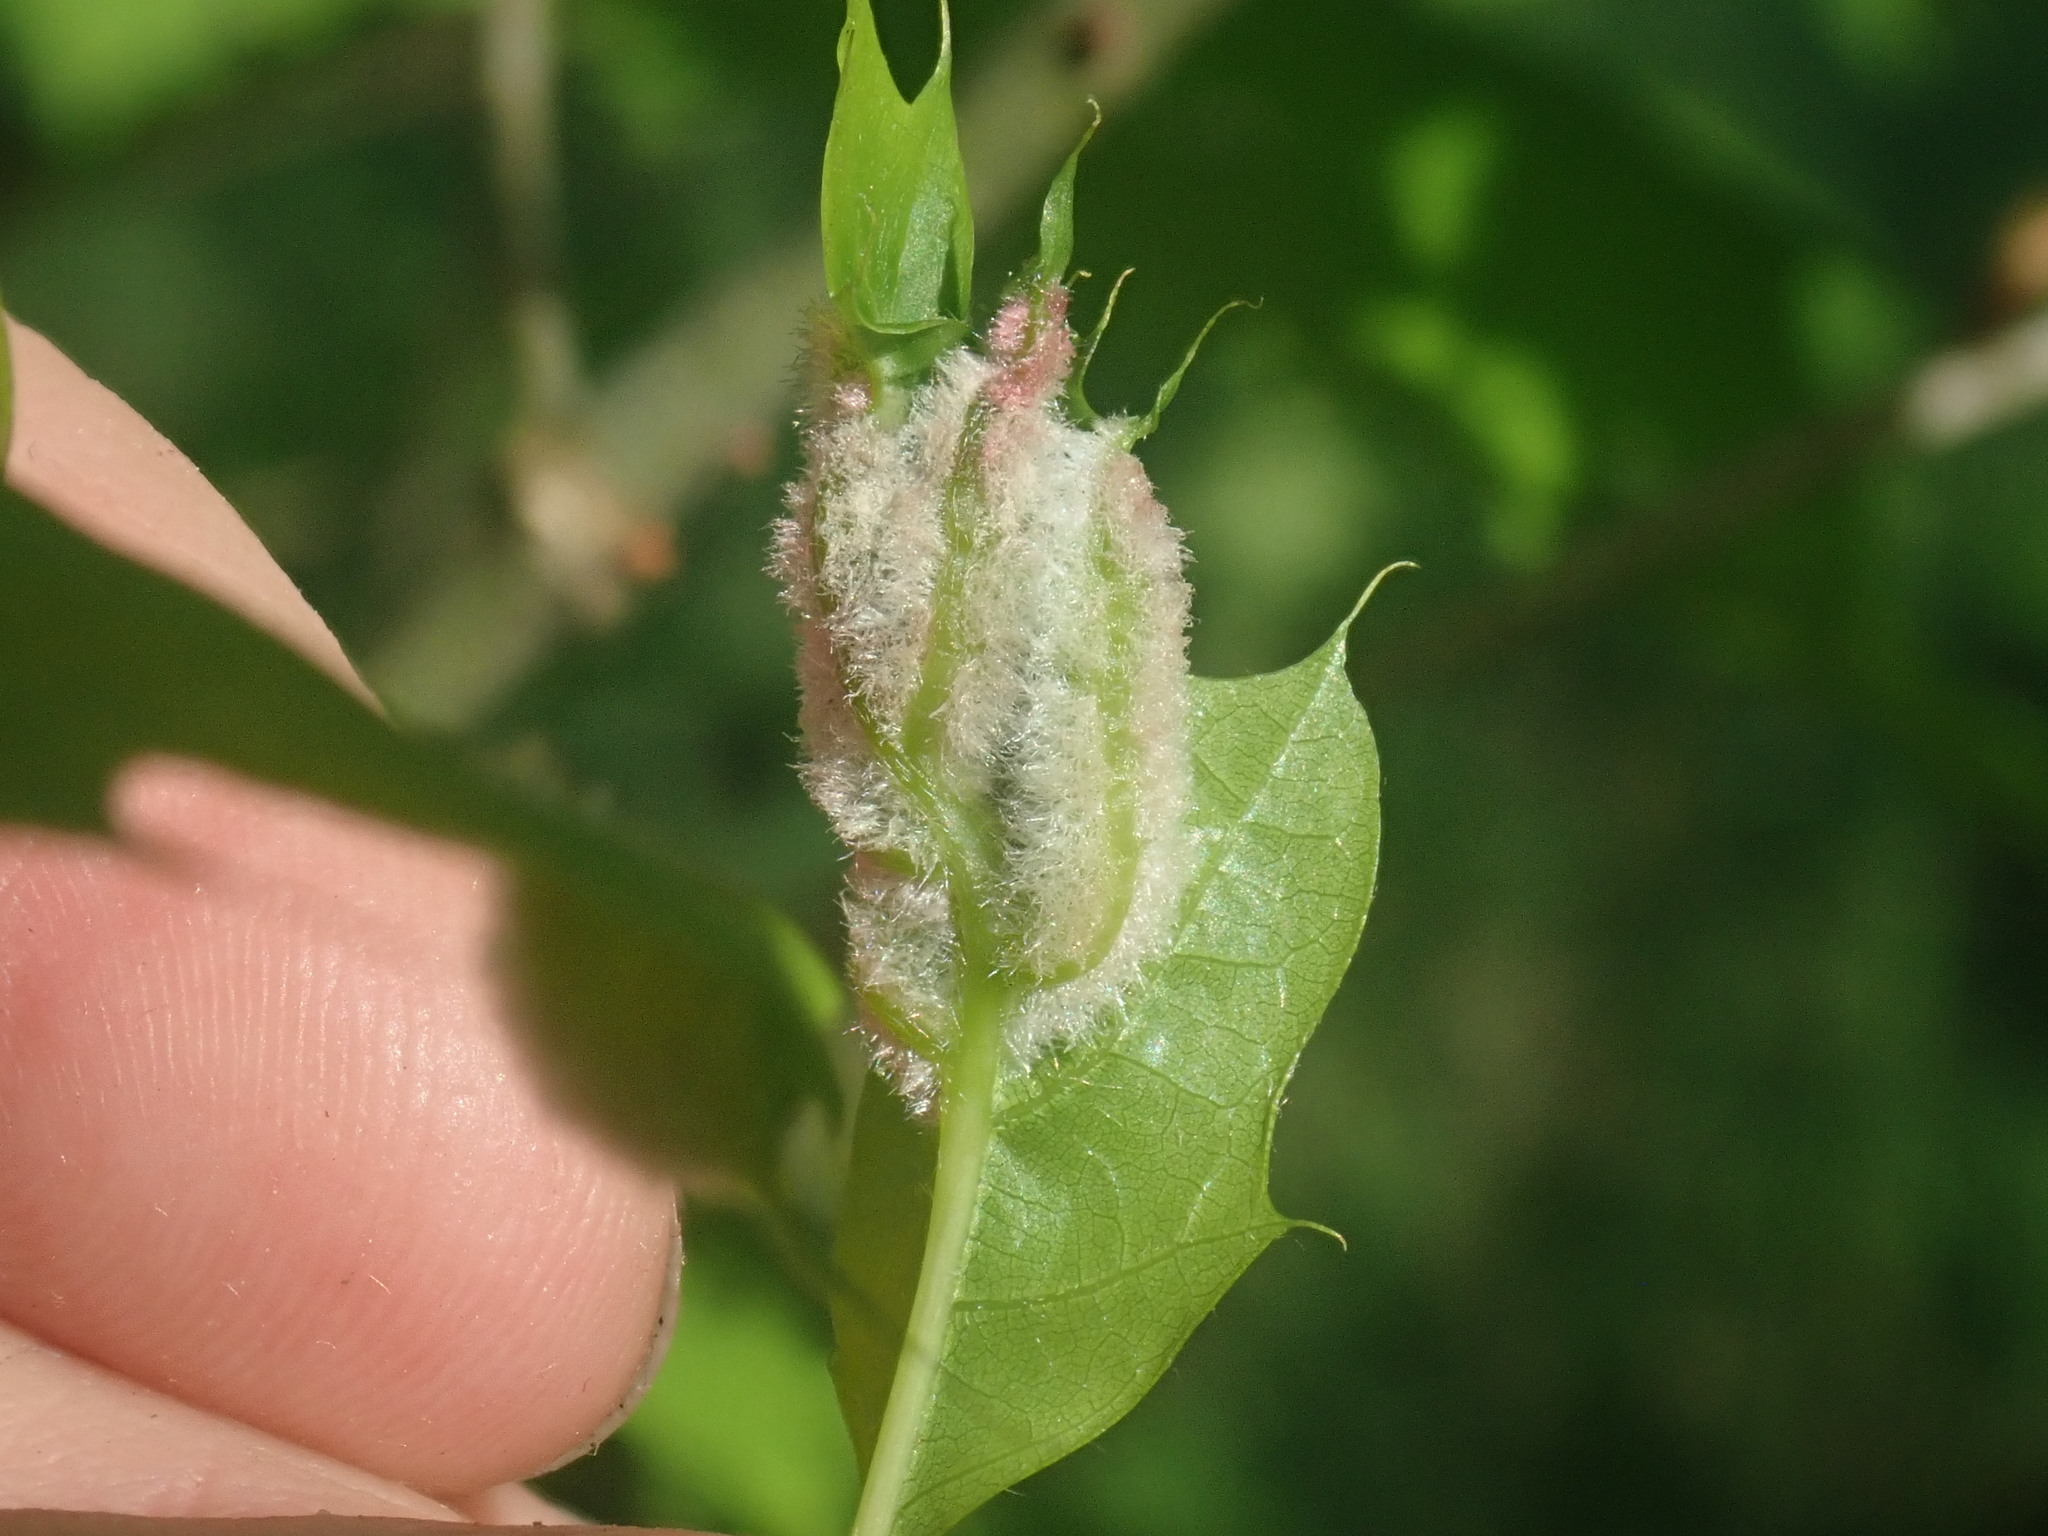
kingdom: Animalia
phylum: Arthropoda
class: Insecta
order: Diptera
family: Cecidomyiidae
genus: Macrodiplosis
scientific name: Macrodiplosis niveipila
